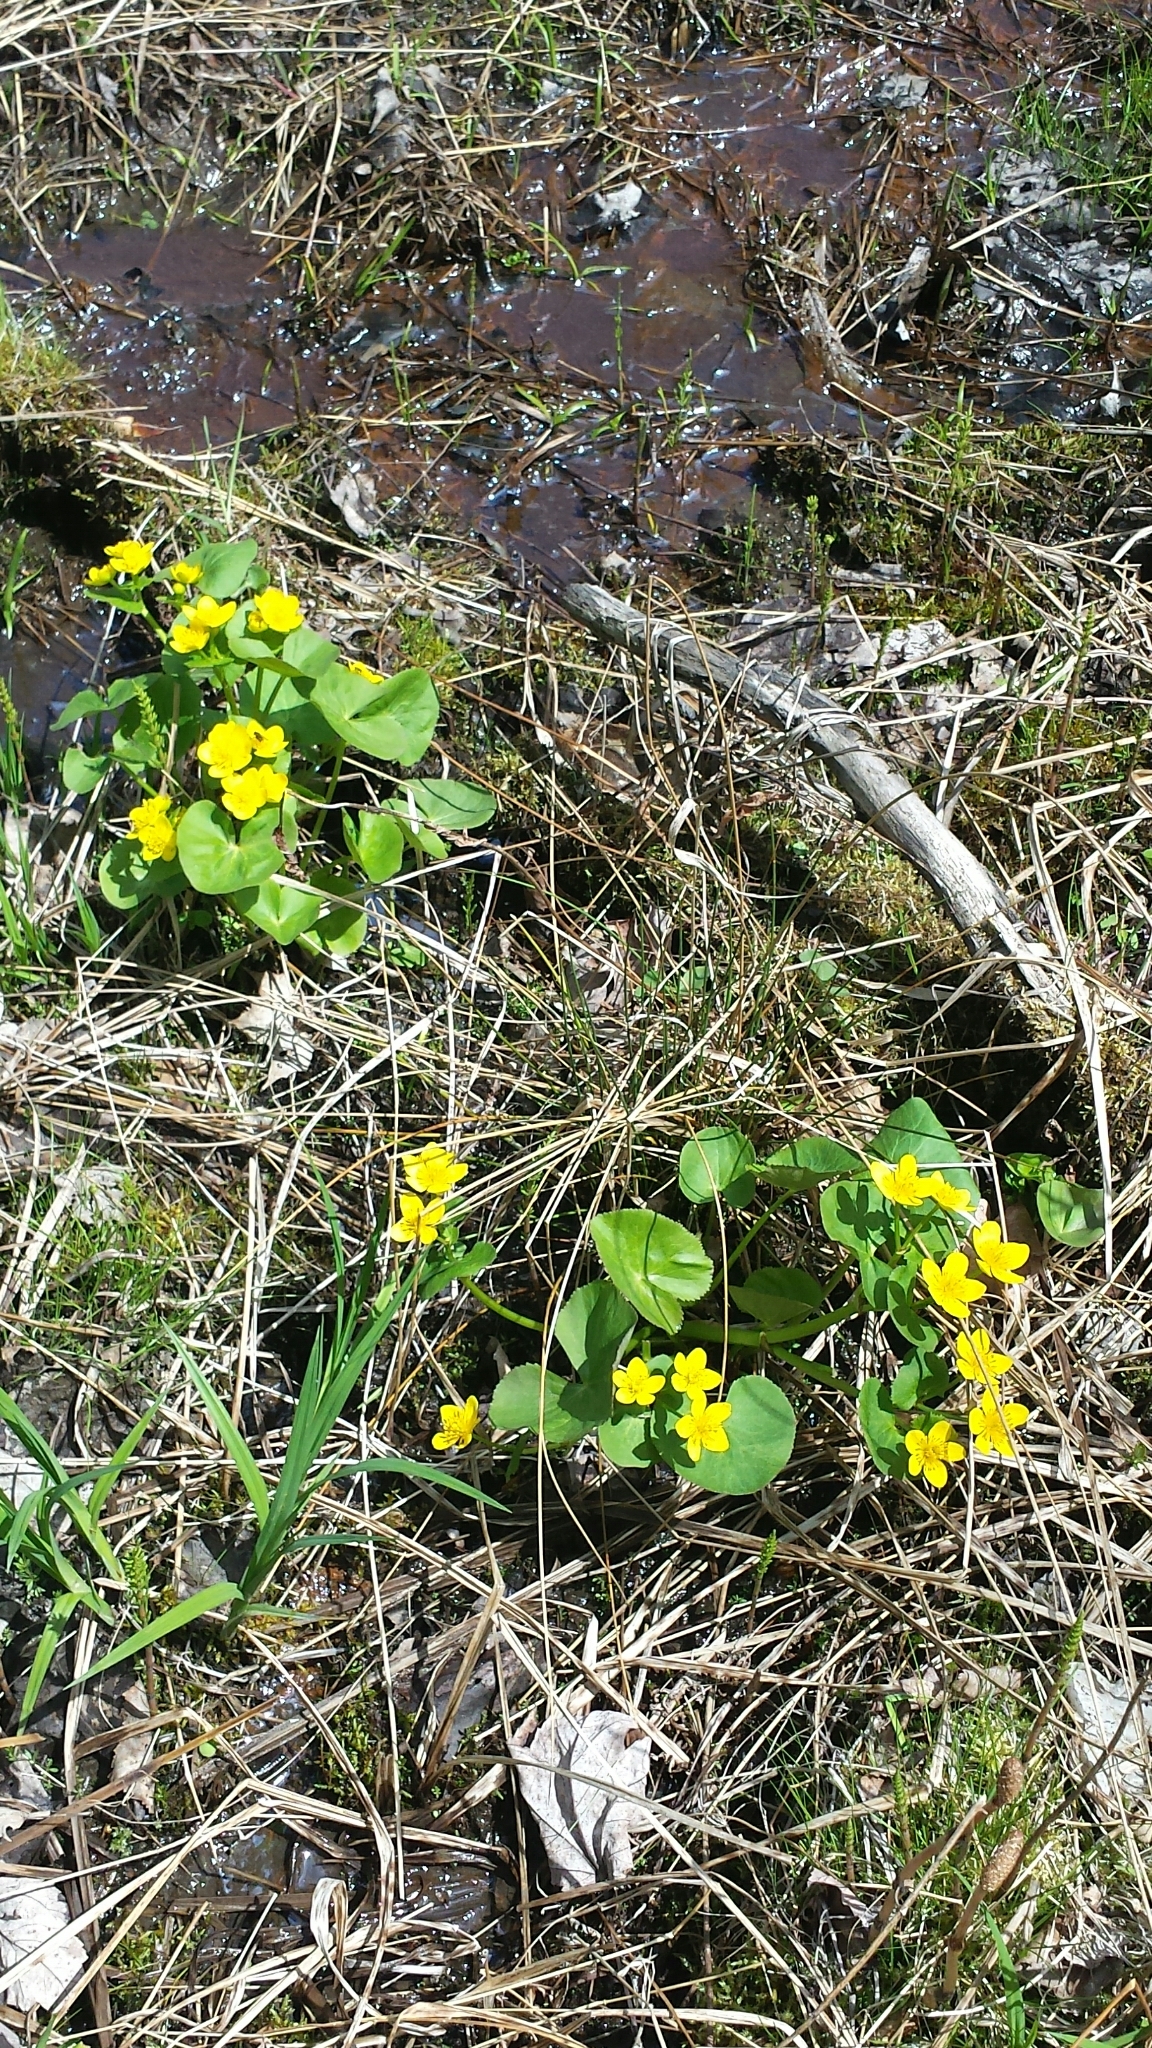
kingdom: Plantae
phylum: Tracheophyta
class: Magnoliopsida
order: Ranunculales
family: Ranunculaceae
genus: Caltha
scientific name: Caltha palustris
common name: Marsh marigold
